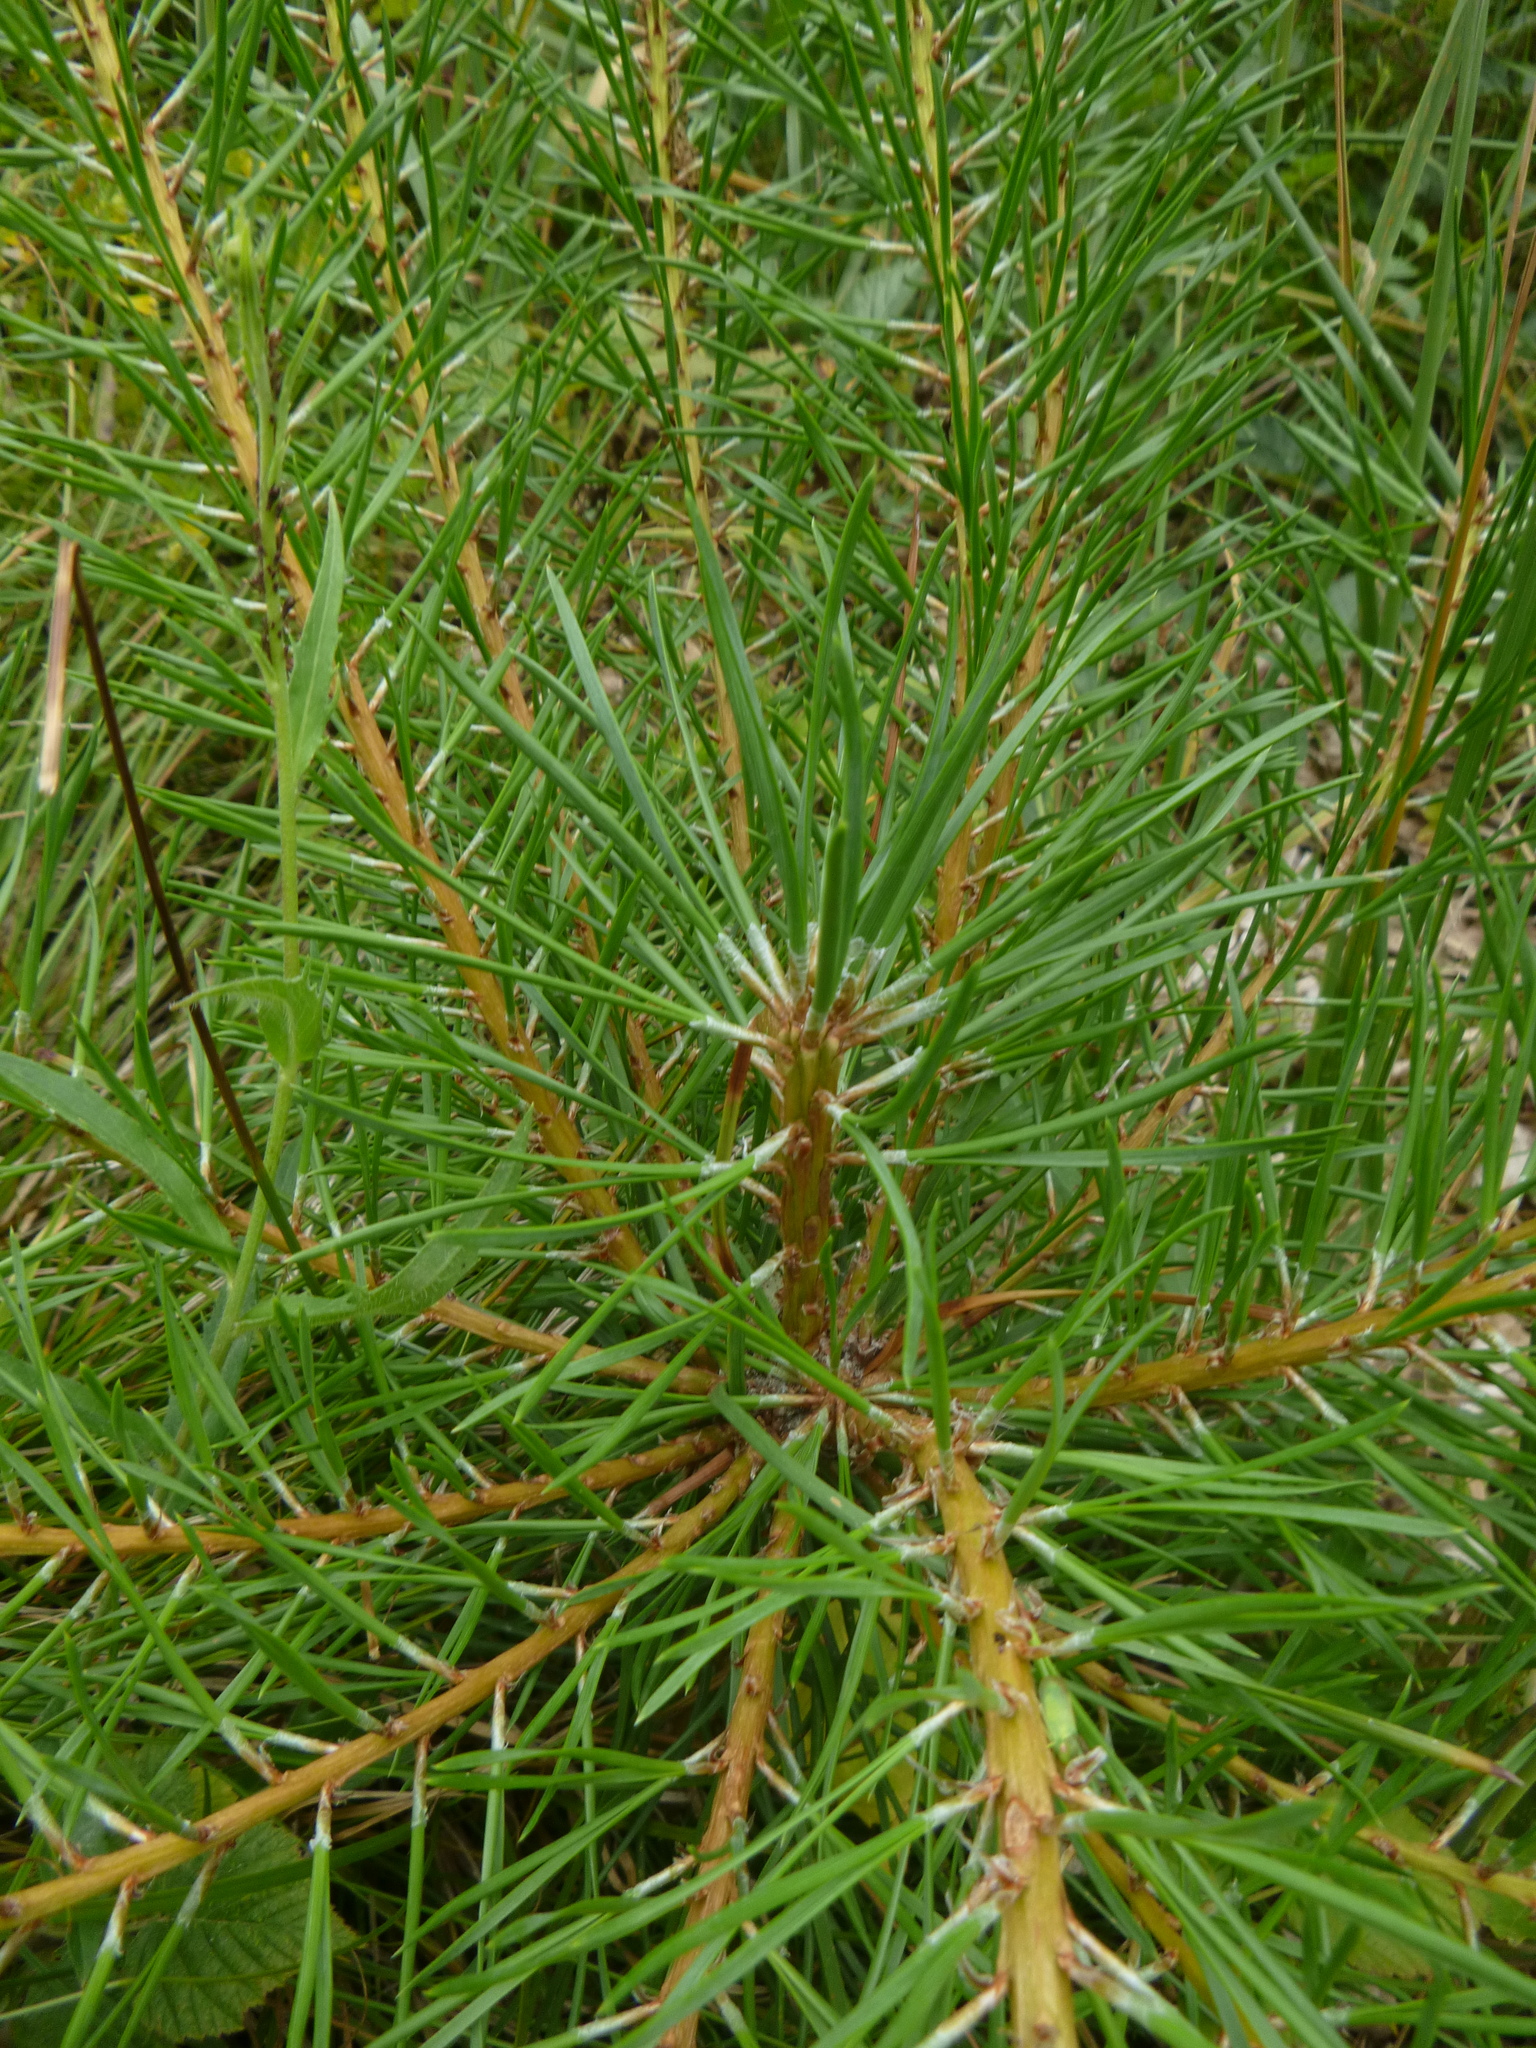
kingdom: Plantae
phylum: Tracheophyta
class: Pinopsida
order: Pinales
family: Pinaceae
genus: Pinus
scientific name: Pinus sylvestris
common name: Scots pine
